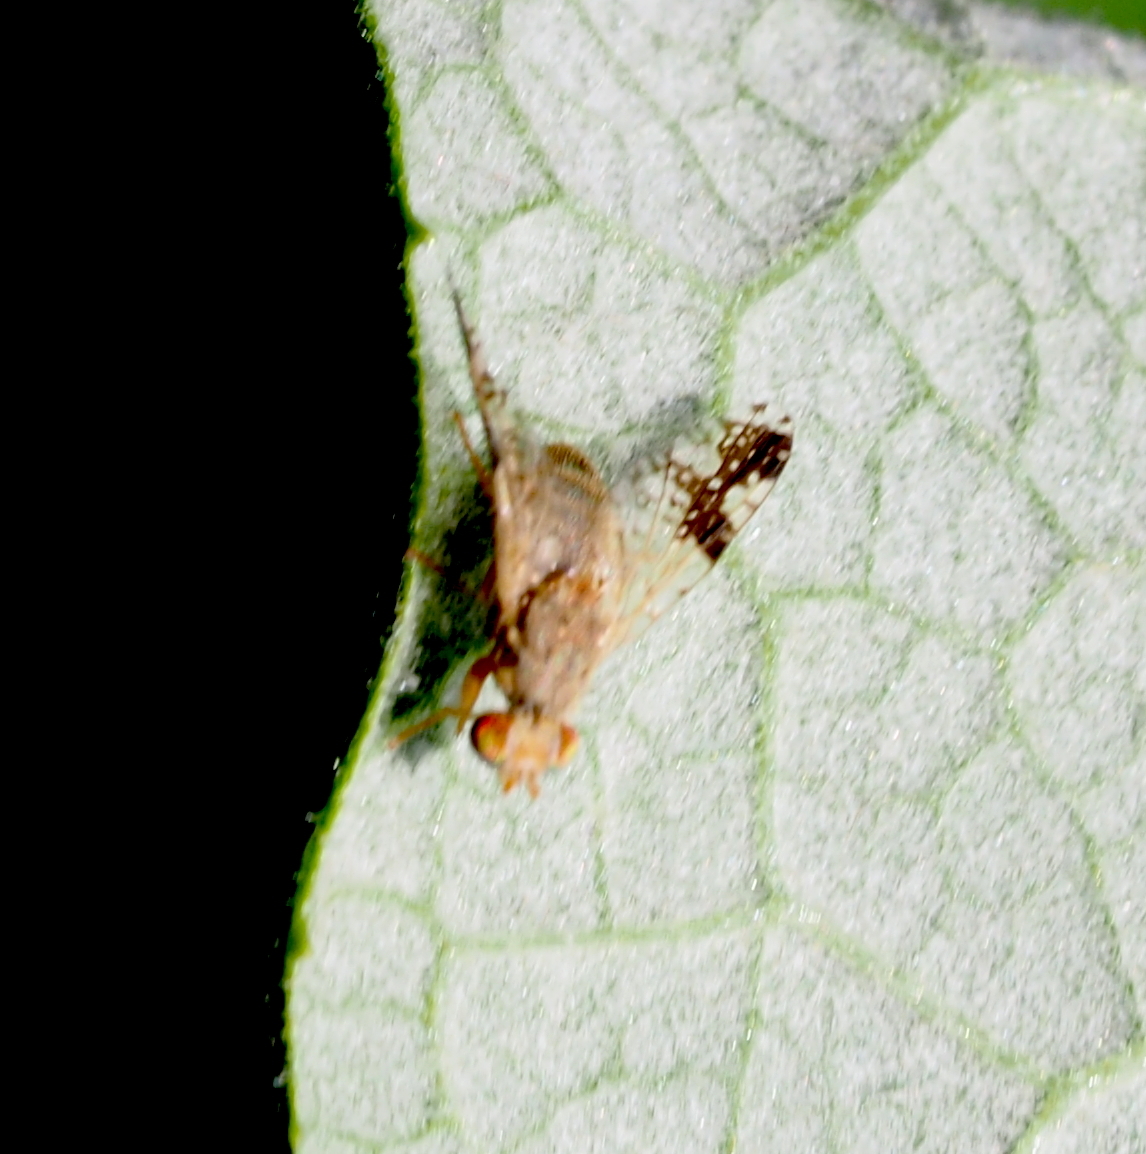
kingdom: Animalia
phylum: Arthropoda
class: Insecta
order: Diptera
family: Tephritidae
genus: Tephritis
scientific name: Tephritis bardanae
